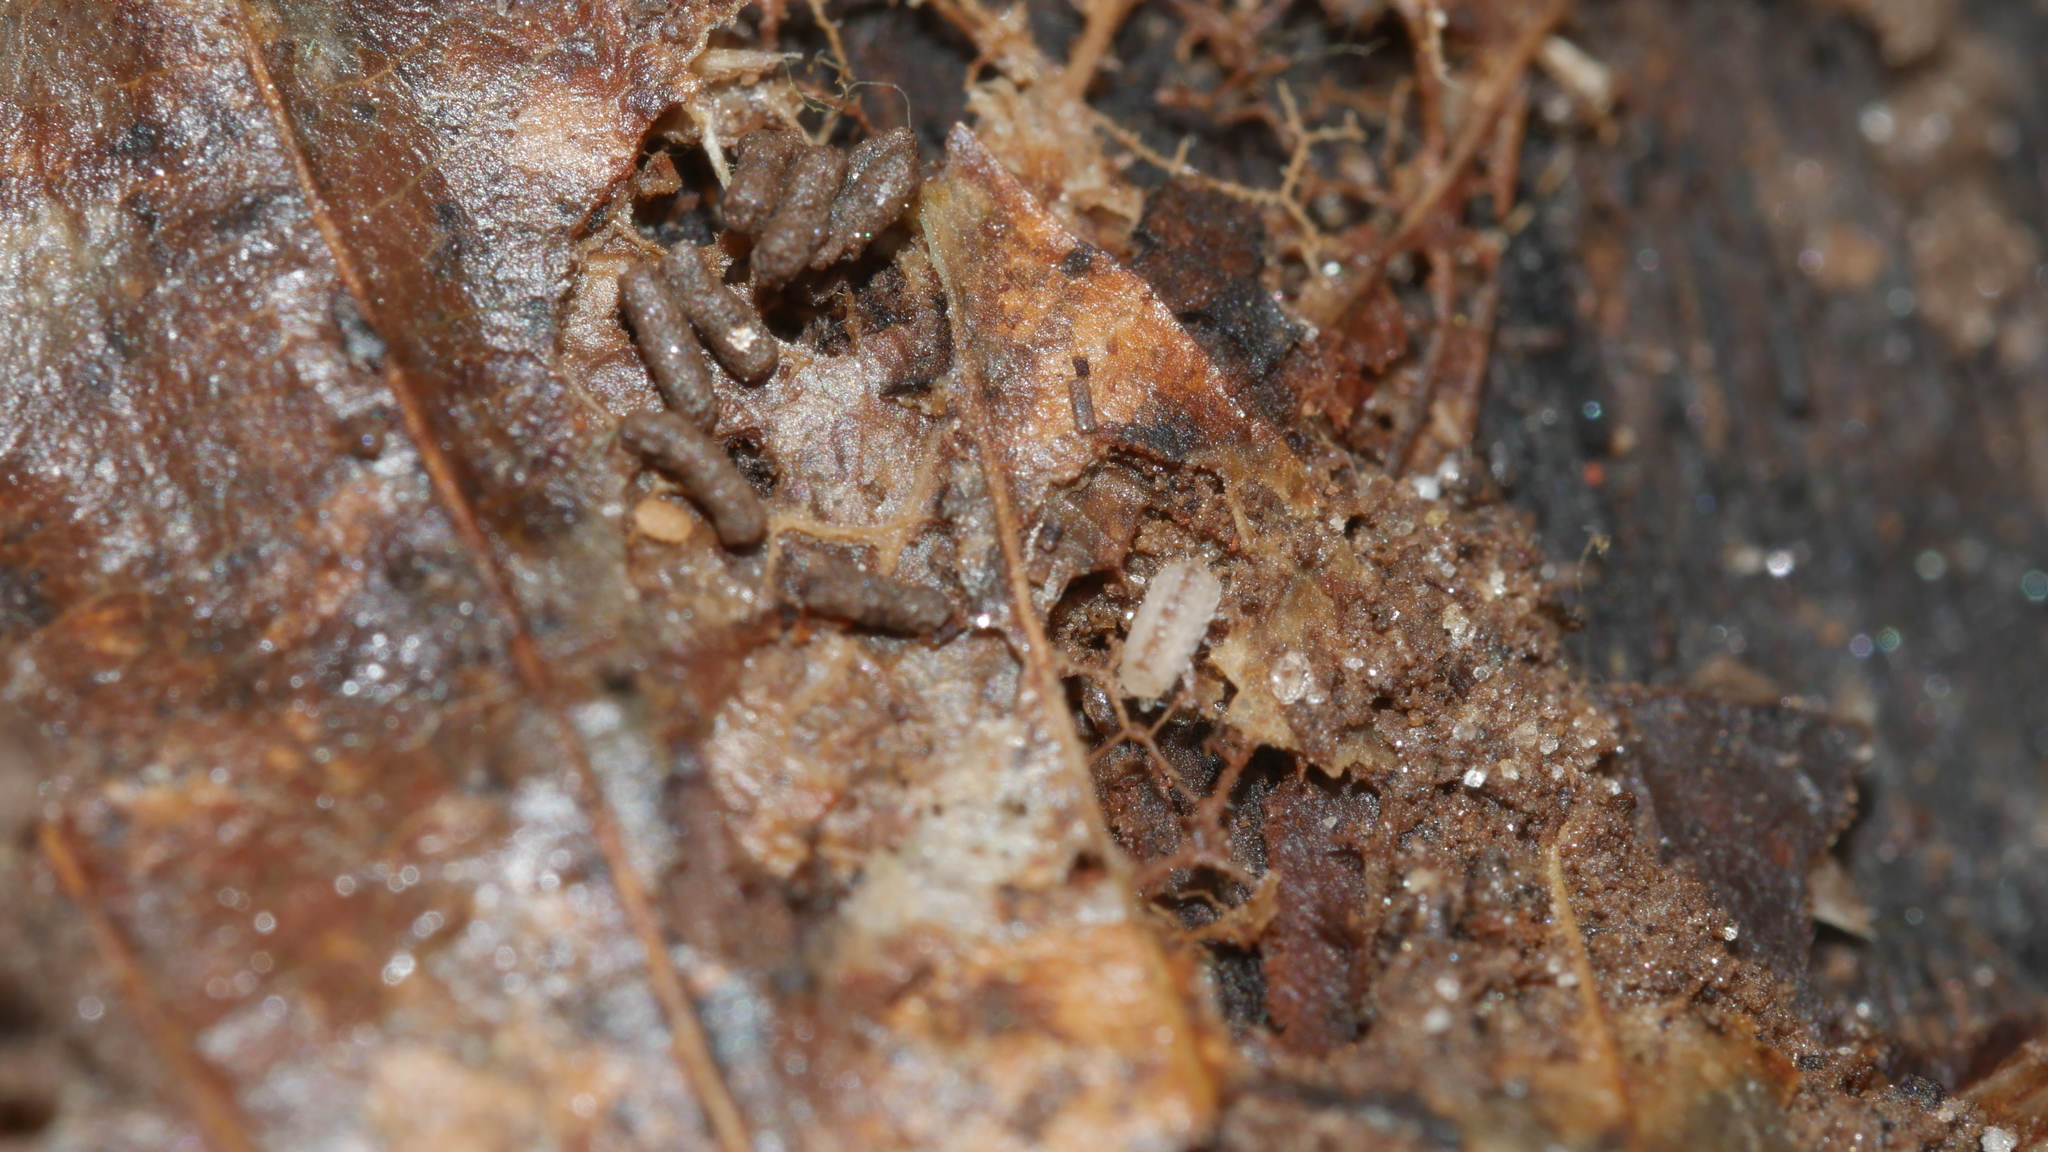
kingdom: Animalia
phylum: Arthropoda
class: Malacostraca
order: Isopoda
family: Trichoniscidae
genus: Haplophthalmus
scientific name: Haplophthalmus danicus
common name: Pillbug
